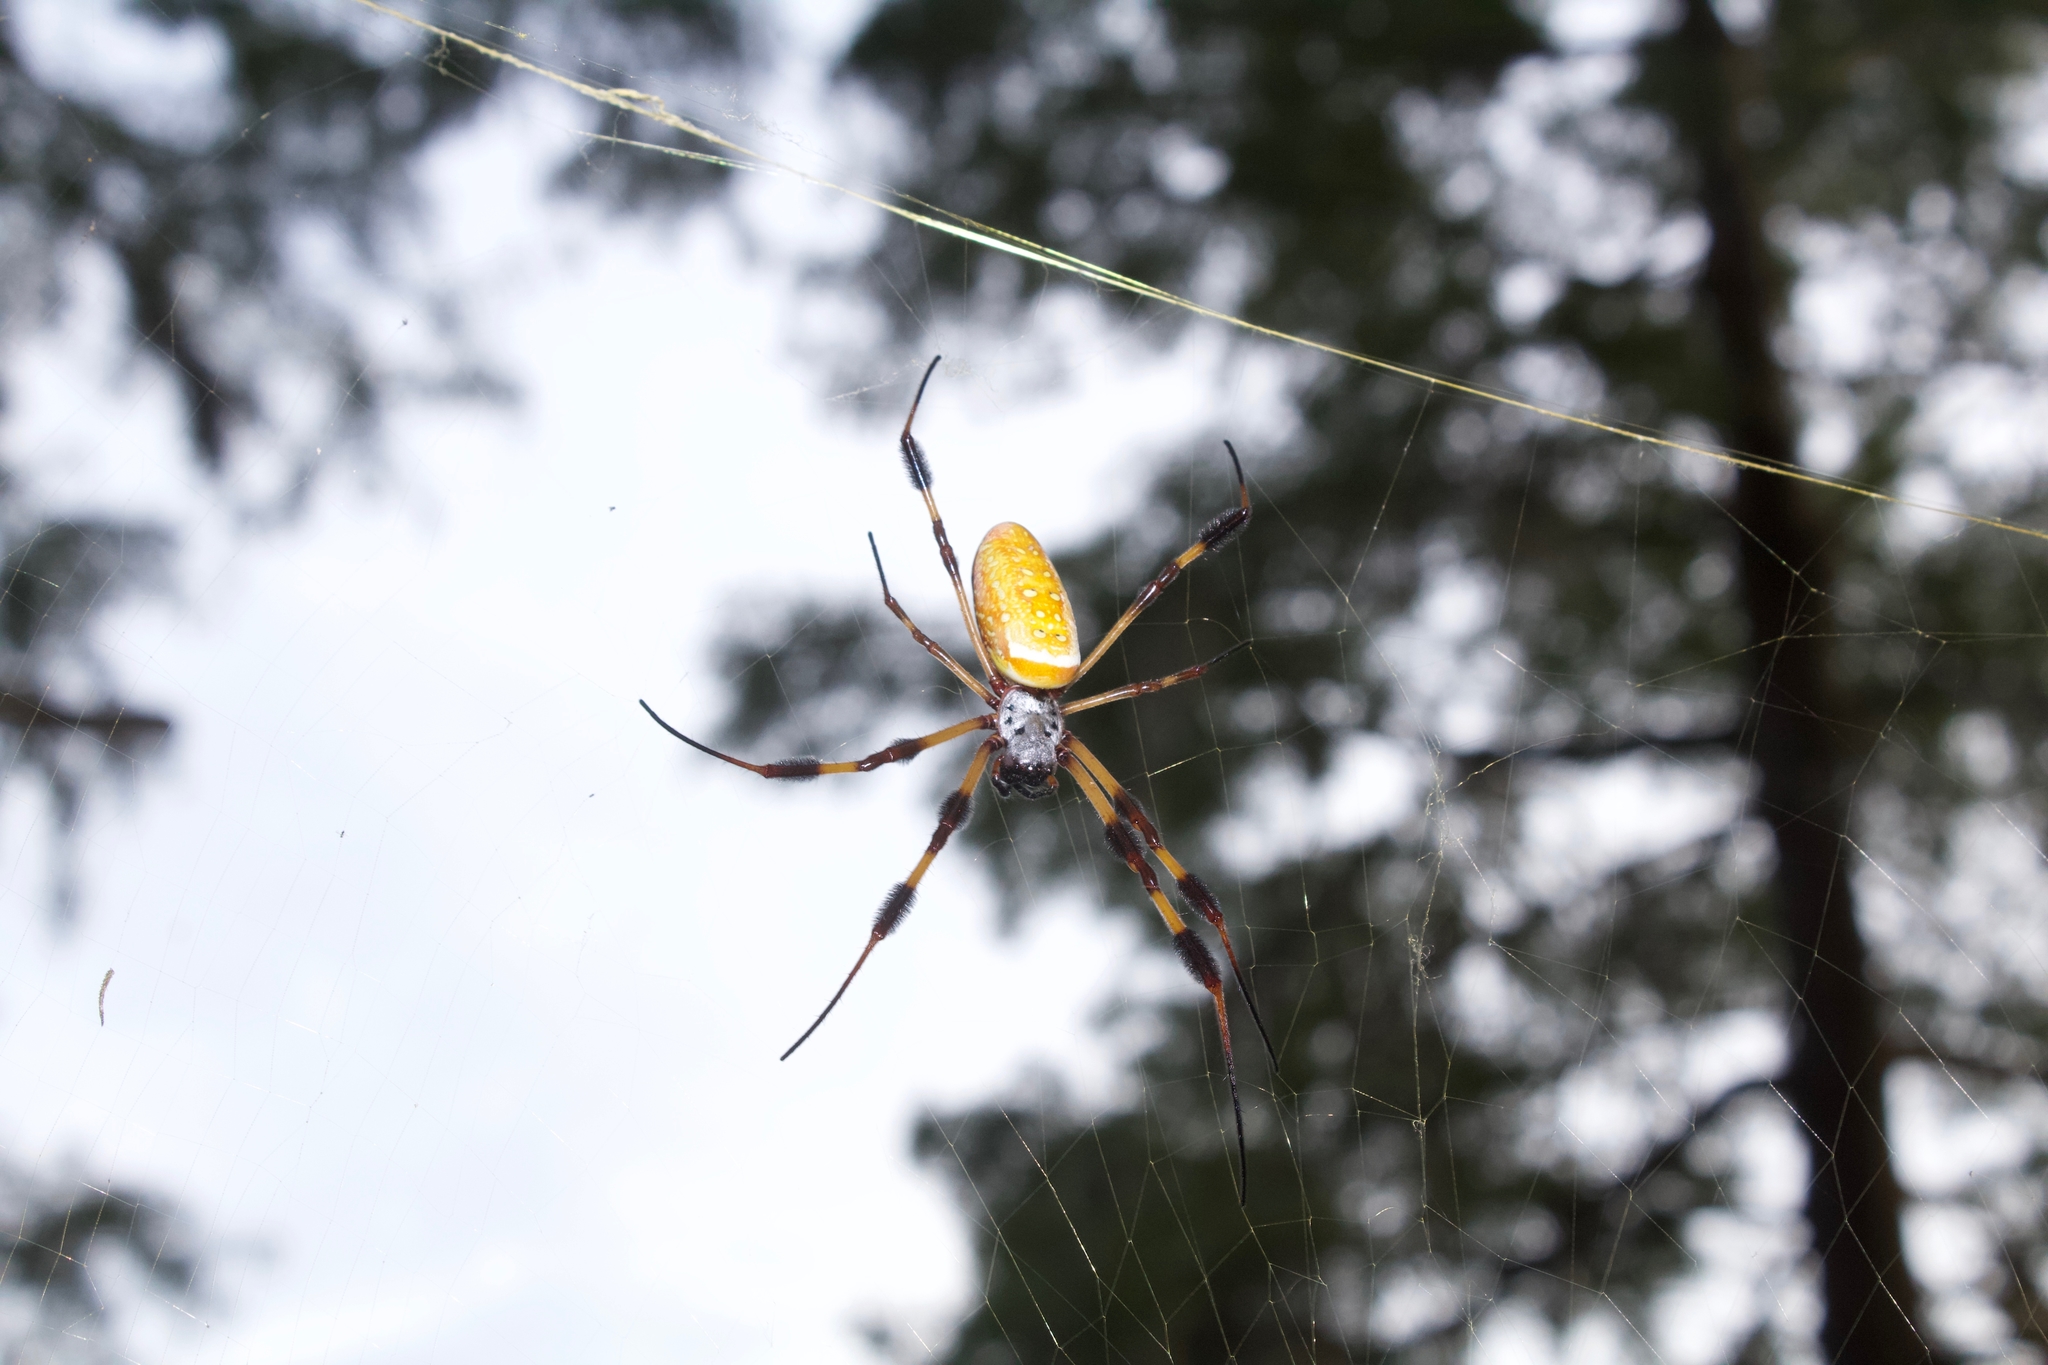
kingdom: Animalia
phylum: Arthropoda
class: Arachnida
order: Araneae
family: Araneidae
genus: Trichonephila
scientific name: Trichonephila clavipes
